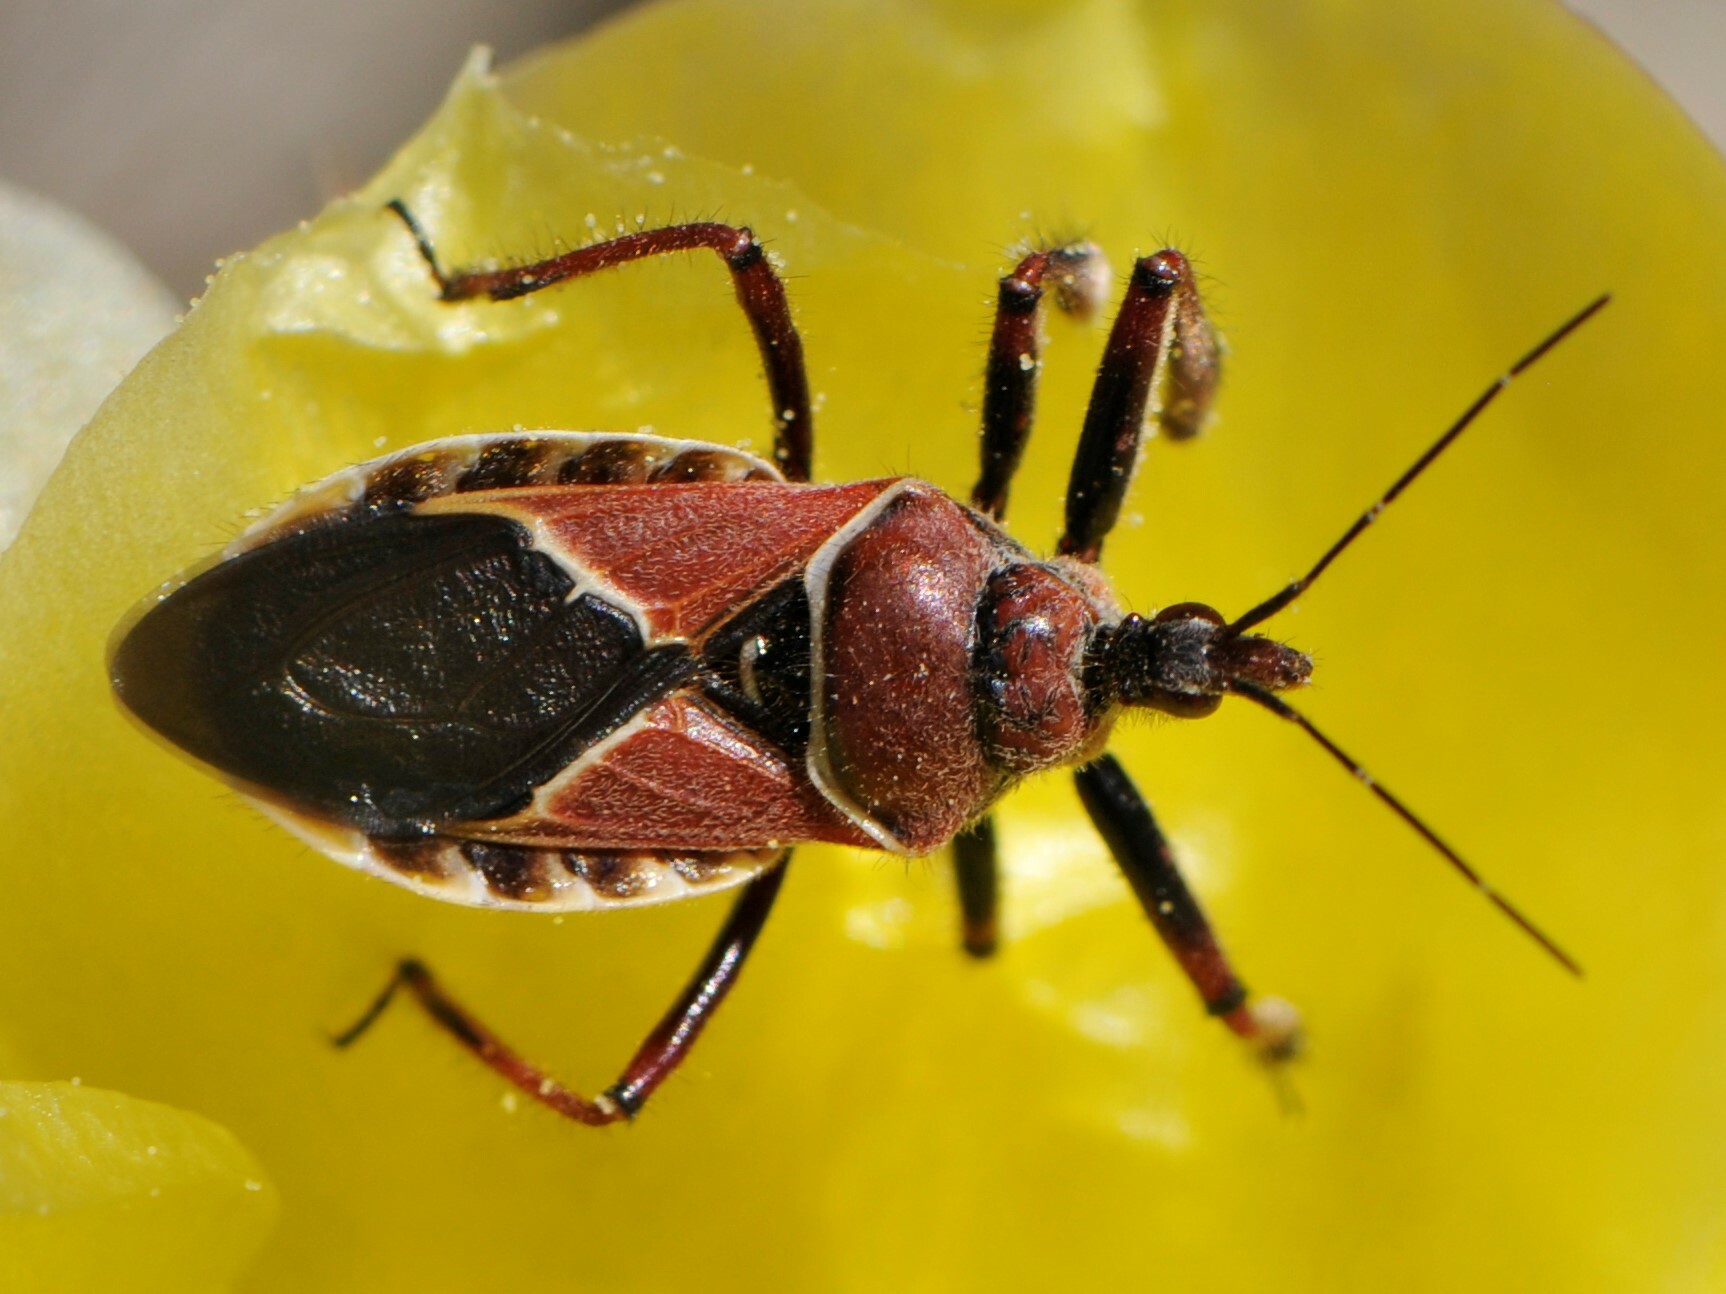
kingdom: Animalia
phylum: Arthropoda
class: Insecta
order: Hemiptera
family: Reduviidae
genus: Apiomerus
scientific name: Apiomerus spissipes
